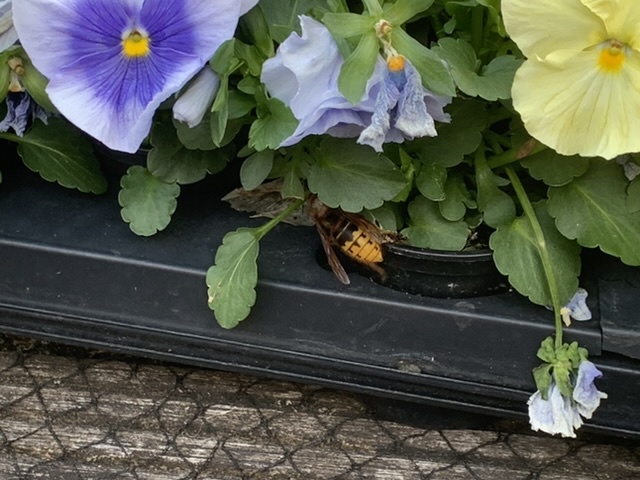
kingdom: Animalia
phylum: Arthropoda
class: Insecta
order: Hymenoptera
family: Vespidae
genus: Vespa
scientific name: Vespa crabro
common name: Hornet
